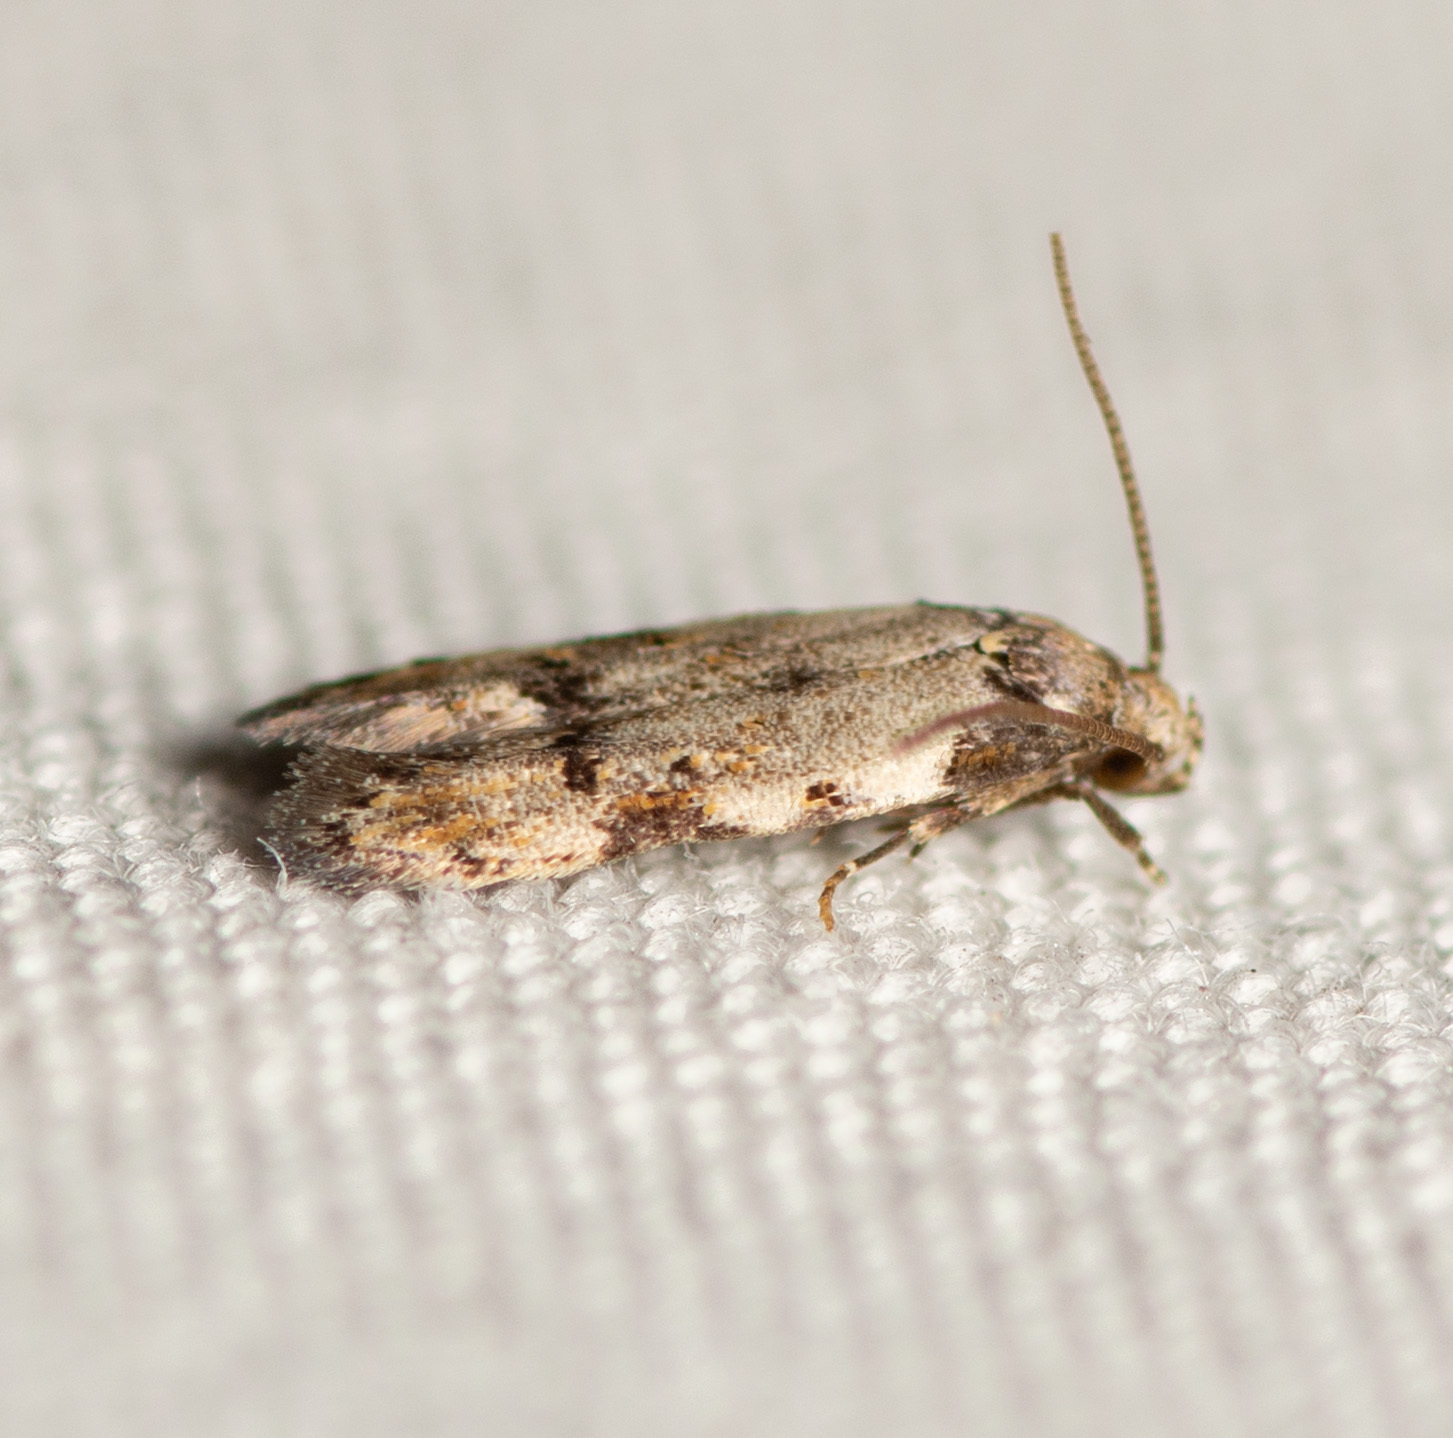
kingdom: Animalia
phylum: Arthropoda
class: Insecta
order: Lepidoptera
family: Autostichidae
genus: Taygete
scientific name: Taygete attributella
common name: Triangle-marked twirler moth
